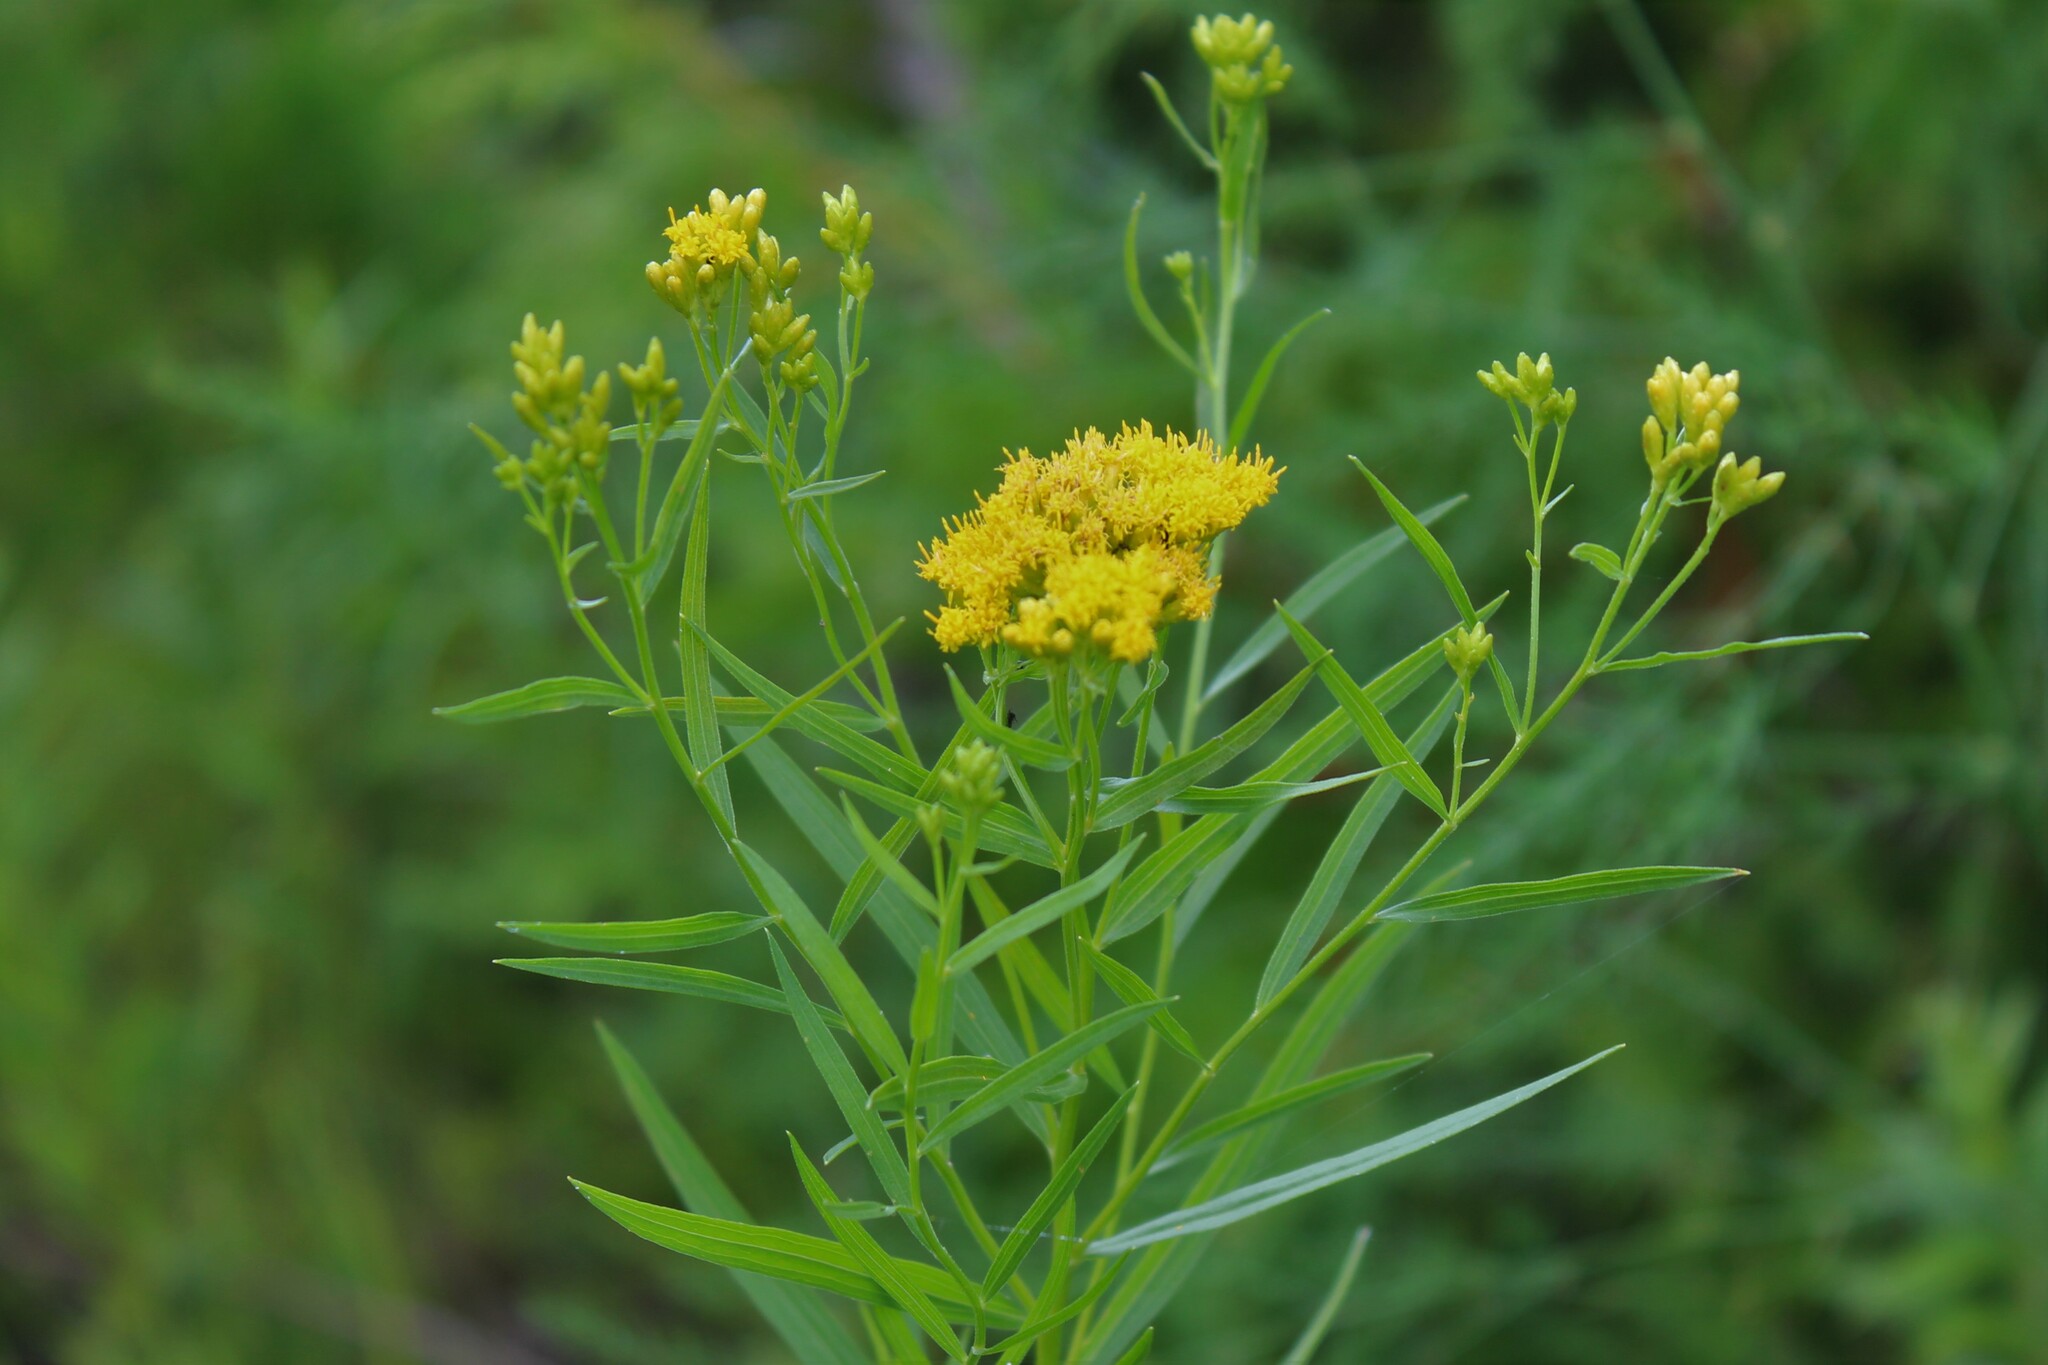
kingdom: Plantae
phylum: Tracheophyta
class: Magnoliopsida
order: Asterales
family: Asteraceae
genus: Euthamia
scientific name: Euthamia graminifolia
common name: Common goldentop
